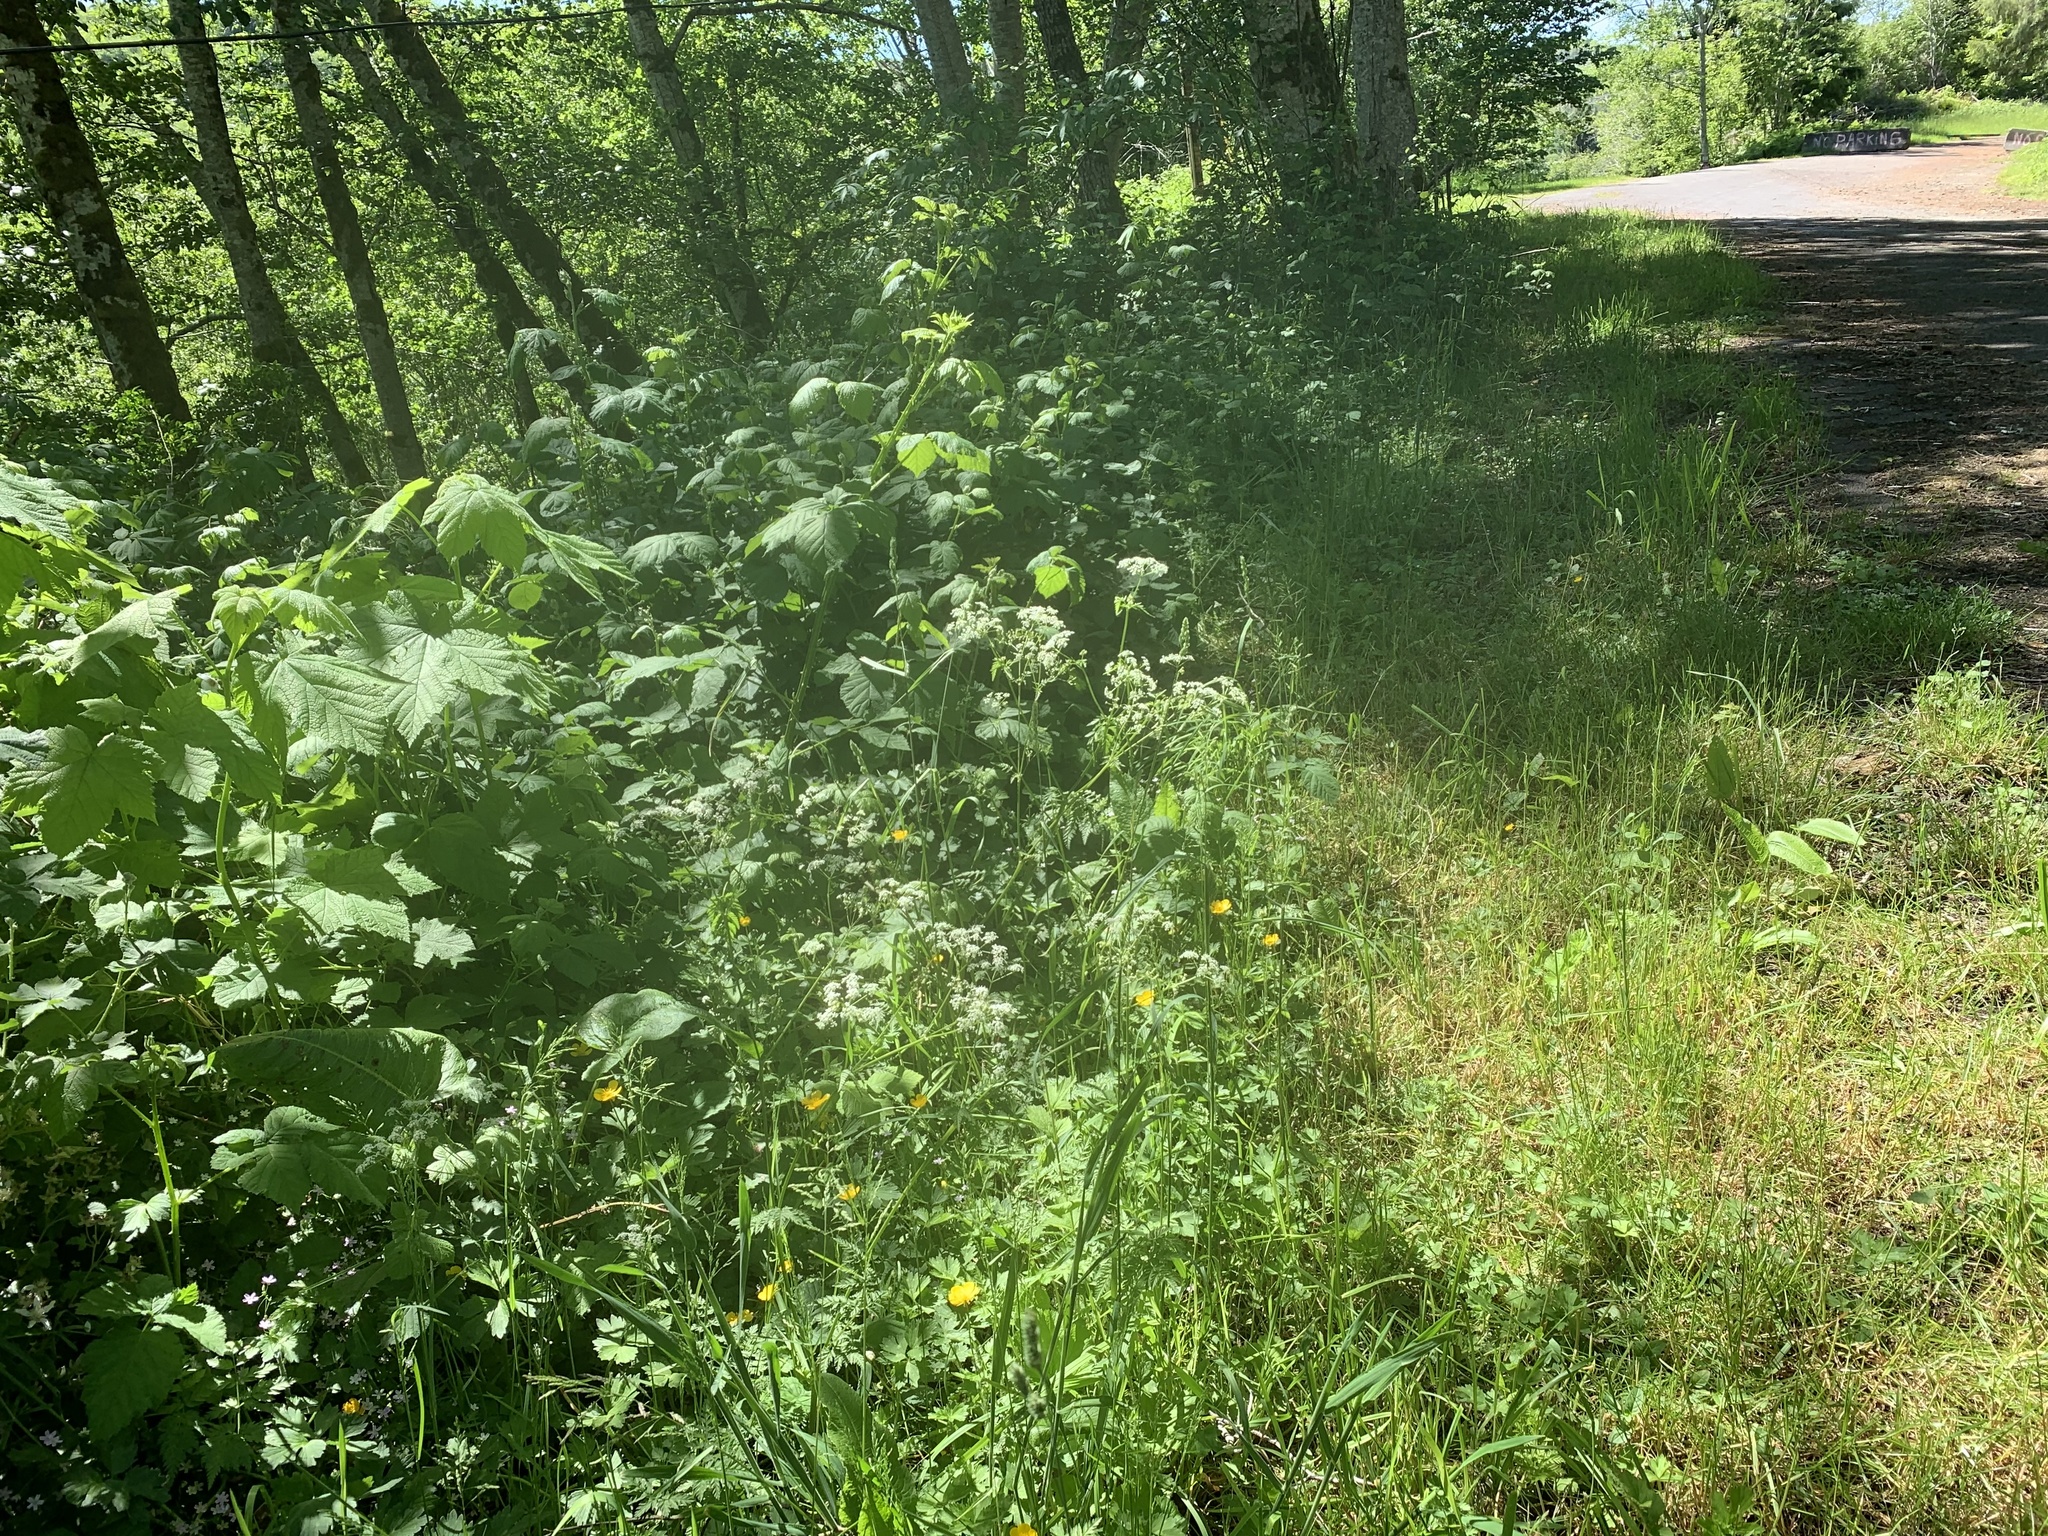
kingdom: Plantae
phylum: Tracheophyta
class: Magnoliopsida
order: Apiales
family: Apiaceae
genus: Anthriscus
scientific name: Anthriscus sylvestris
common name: Cow parsley
